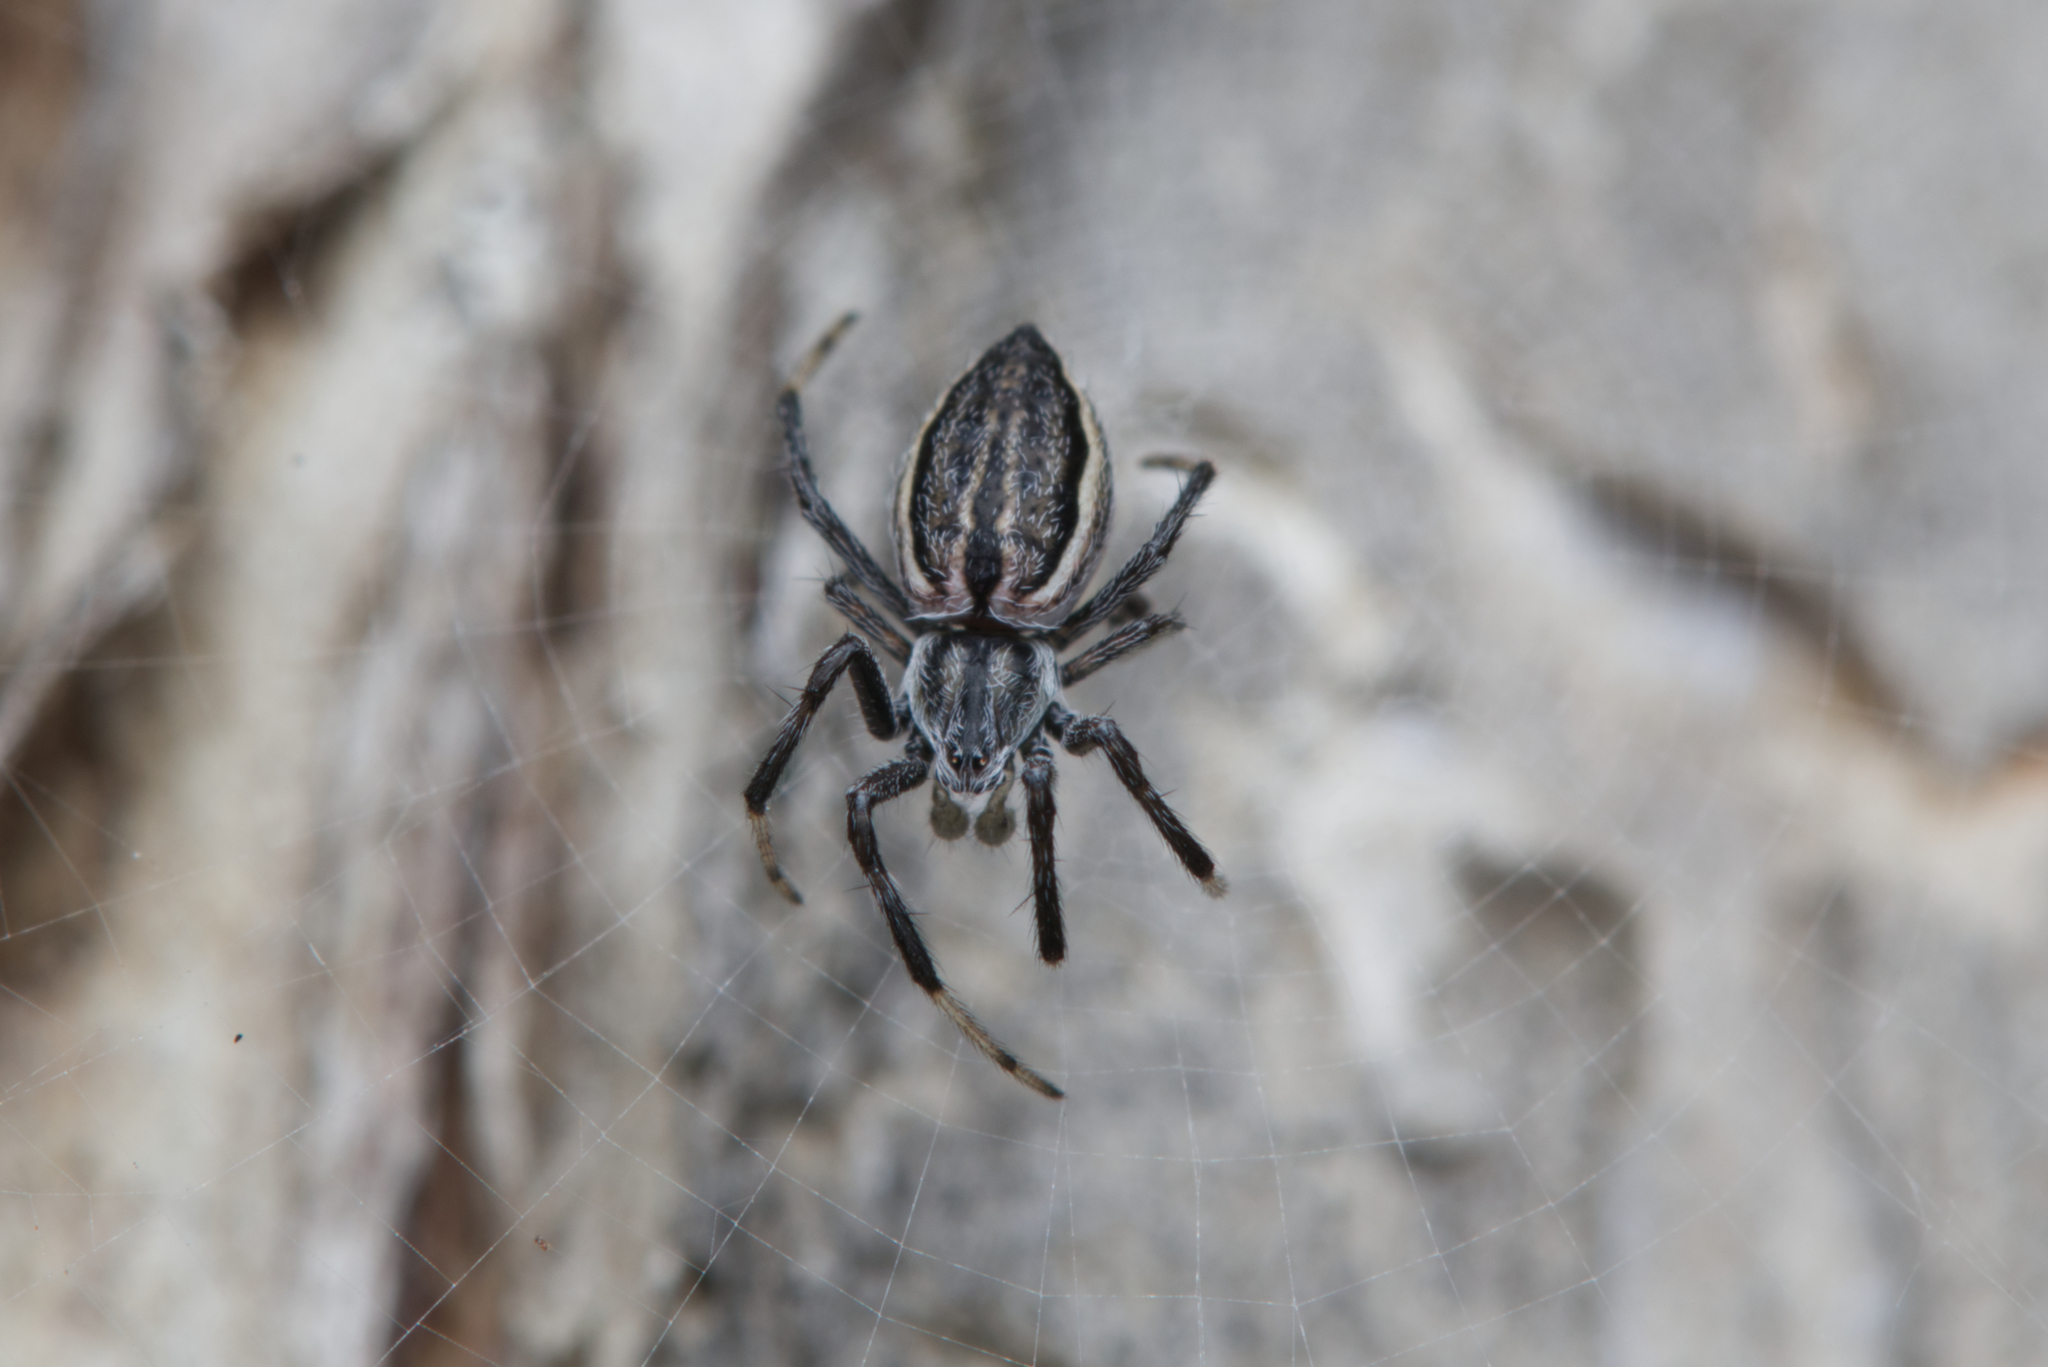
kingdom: Animalia
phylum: Arthropoda
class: Arachnida
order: Araneae
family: Araneidae
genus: Argiope
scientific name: Argiope ocyaloides
